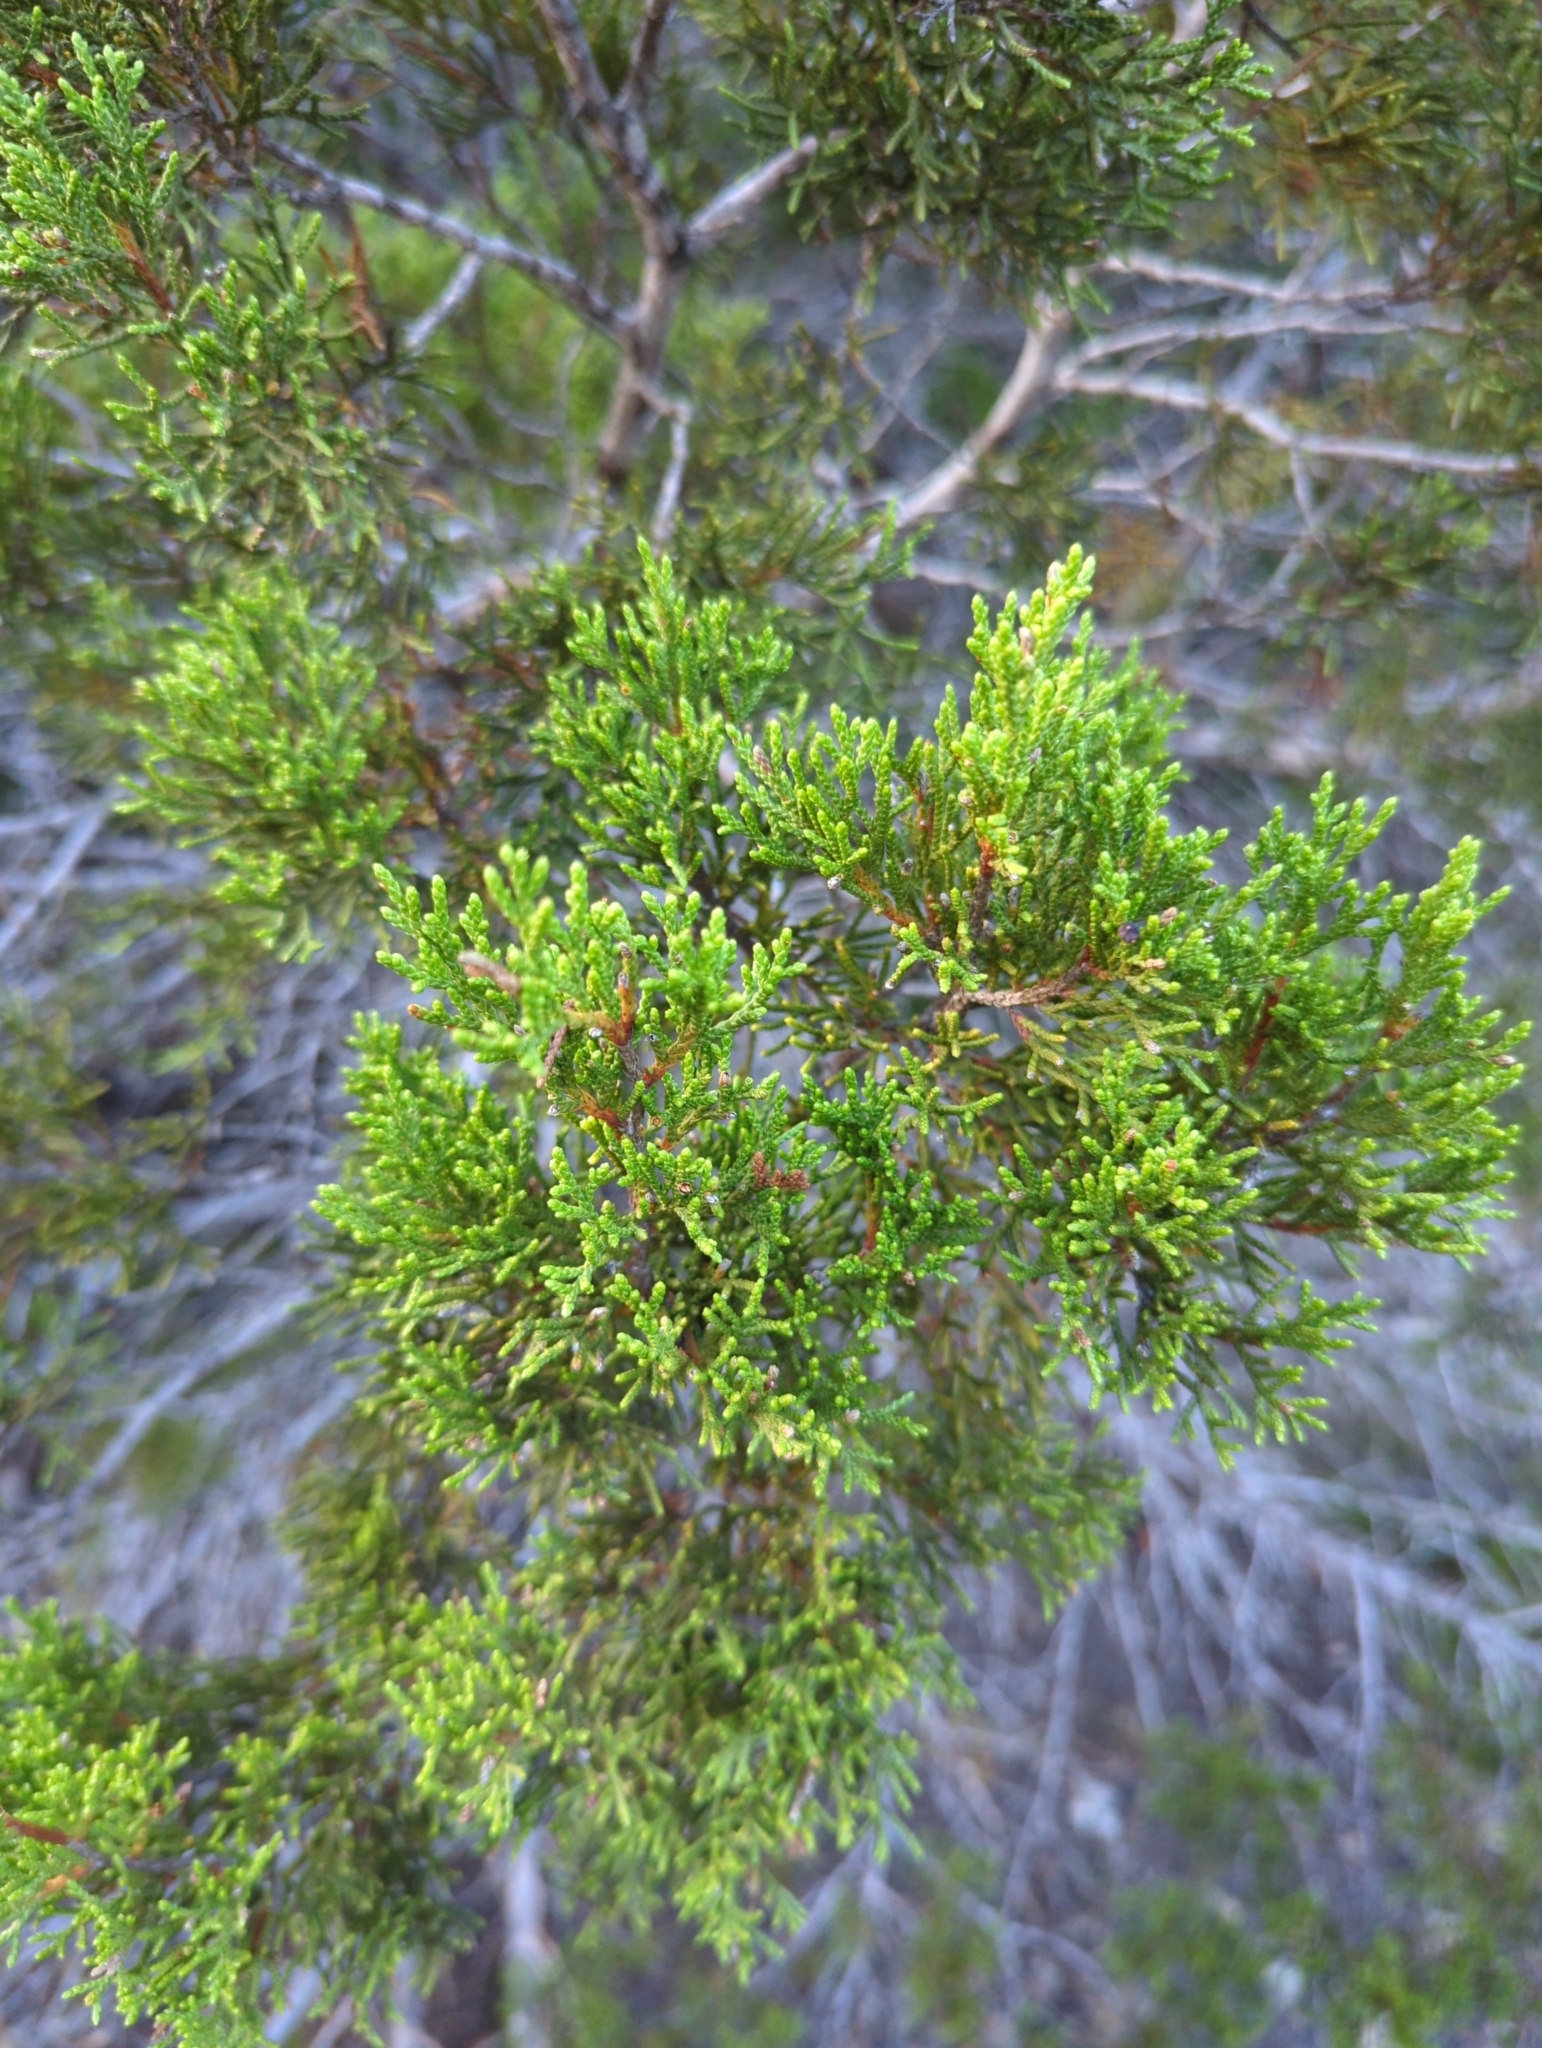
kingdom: Plantae
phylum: Tracheophyta
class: Pinopsida
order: Pinales
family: Cupressaceae
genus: Juniperus
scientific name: Juniperus ashei
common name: Mexican juniper
